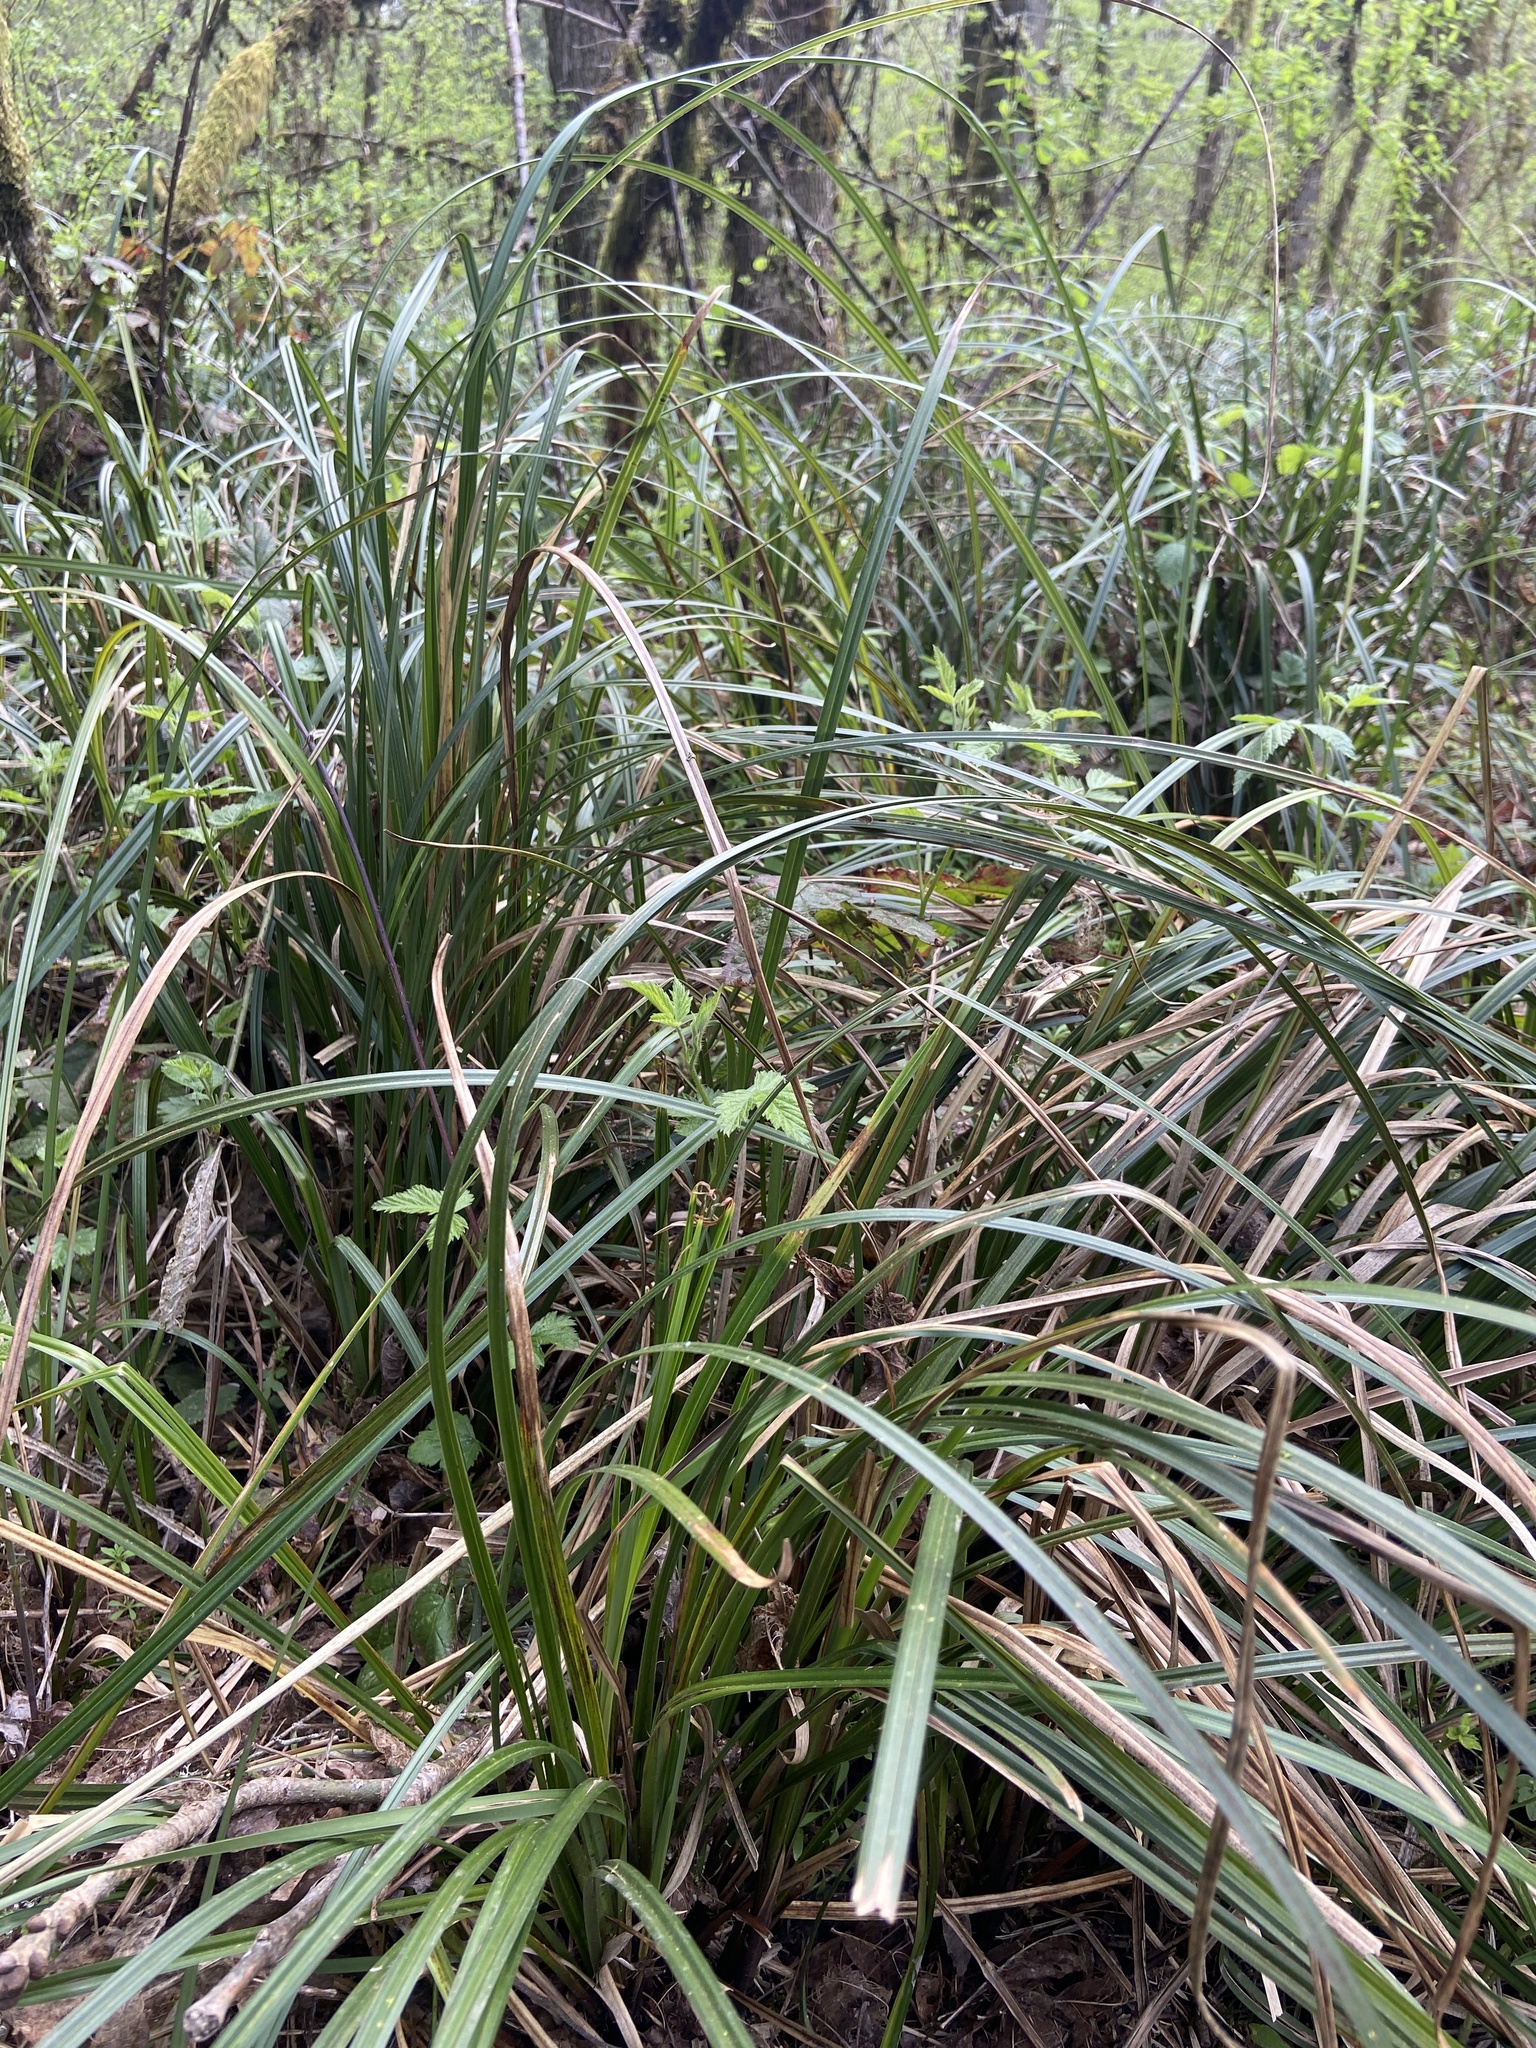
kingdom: Plantae
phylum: Tracheophyta
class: Liliopsida
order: Poales
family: Cyperaceae
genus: Carex
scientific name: Carex obnupta
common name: Slough sedge
